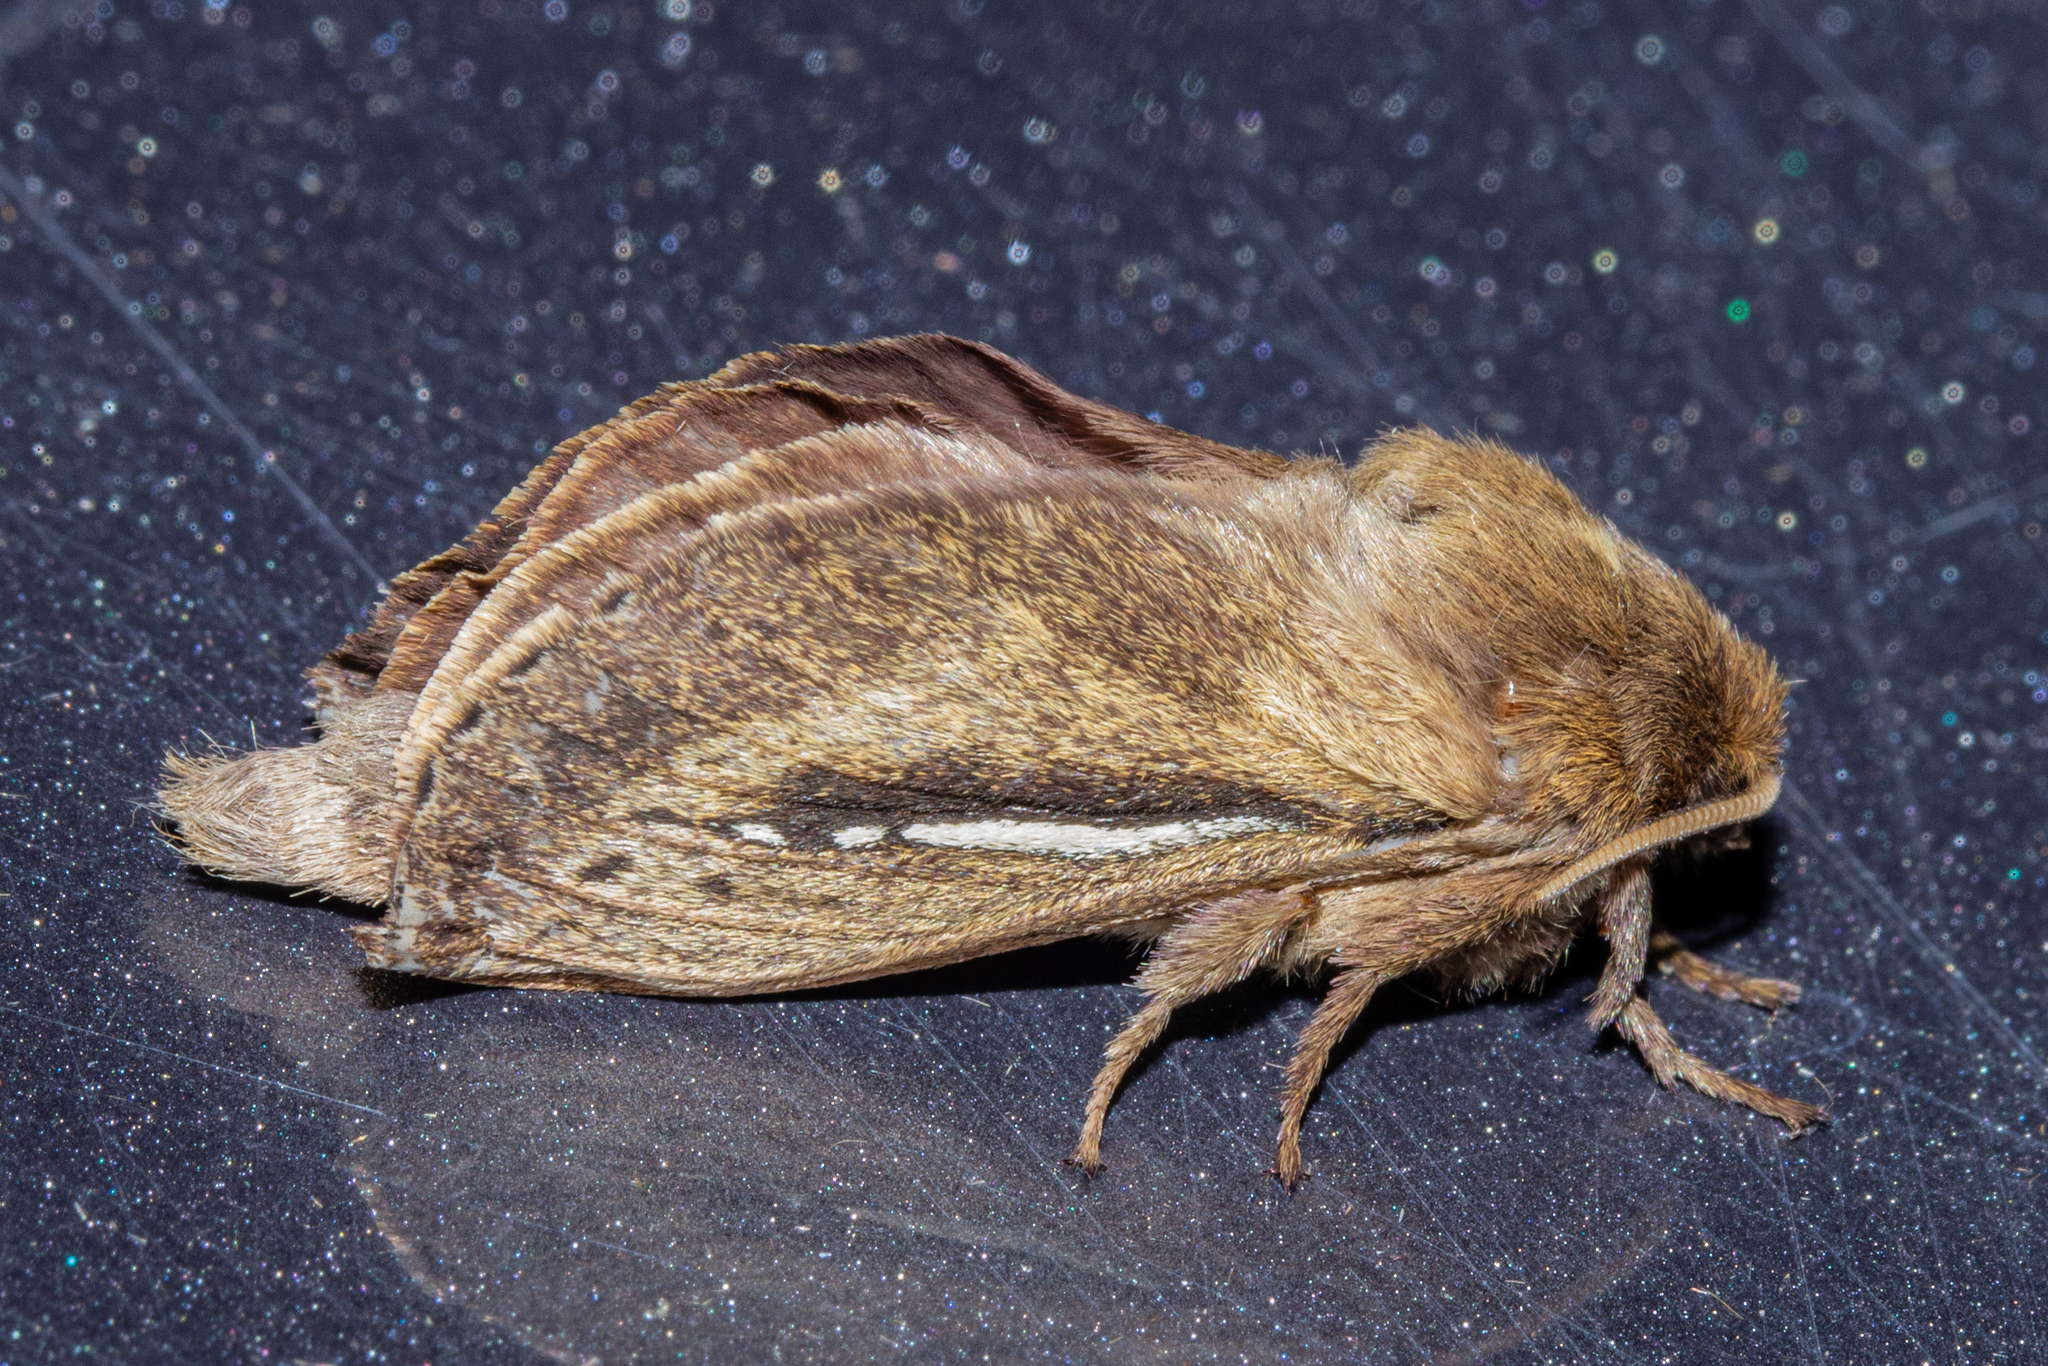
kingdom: Animalia
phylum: Arthropoda
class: Insecta
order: Lepidoptera
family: Hepialidae
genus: Wiseana
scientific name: Wiseana umbraculatus
